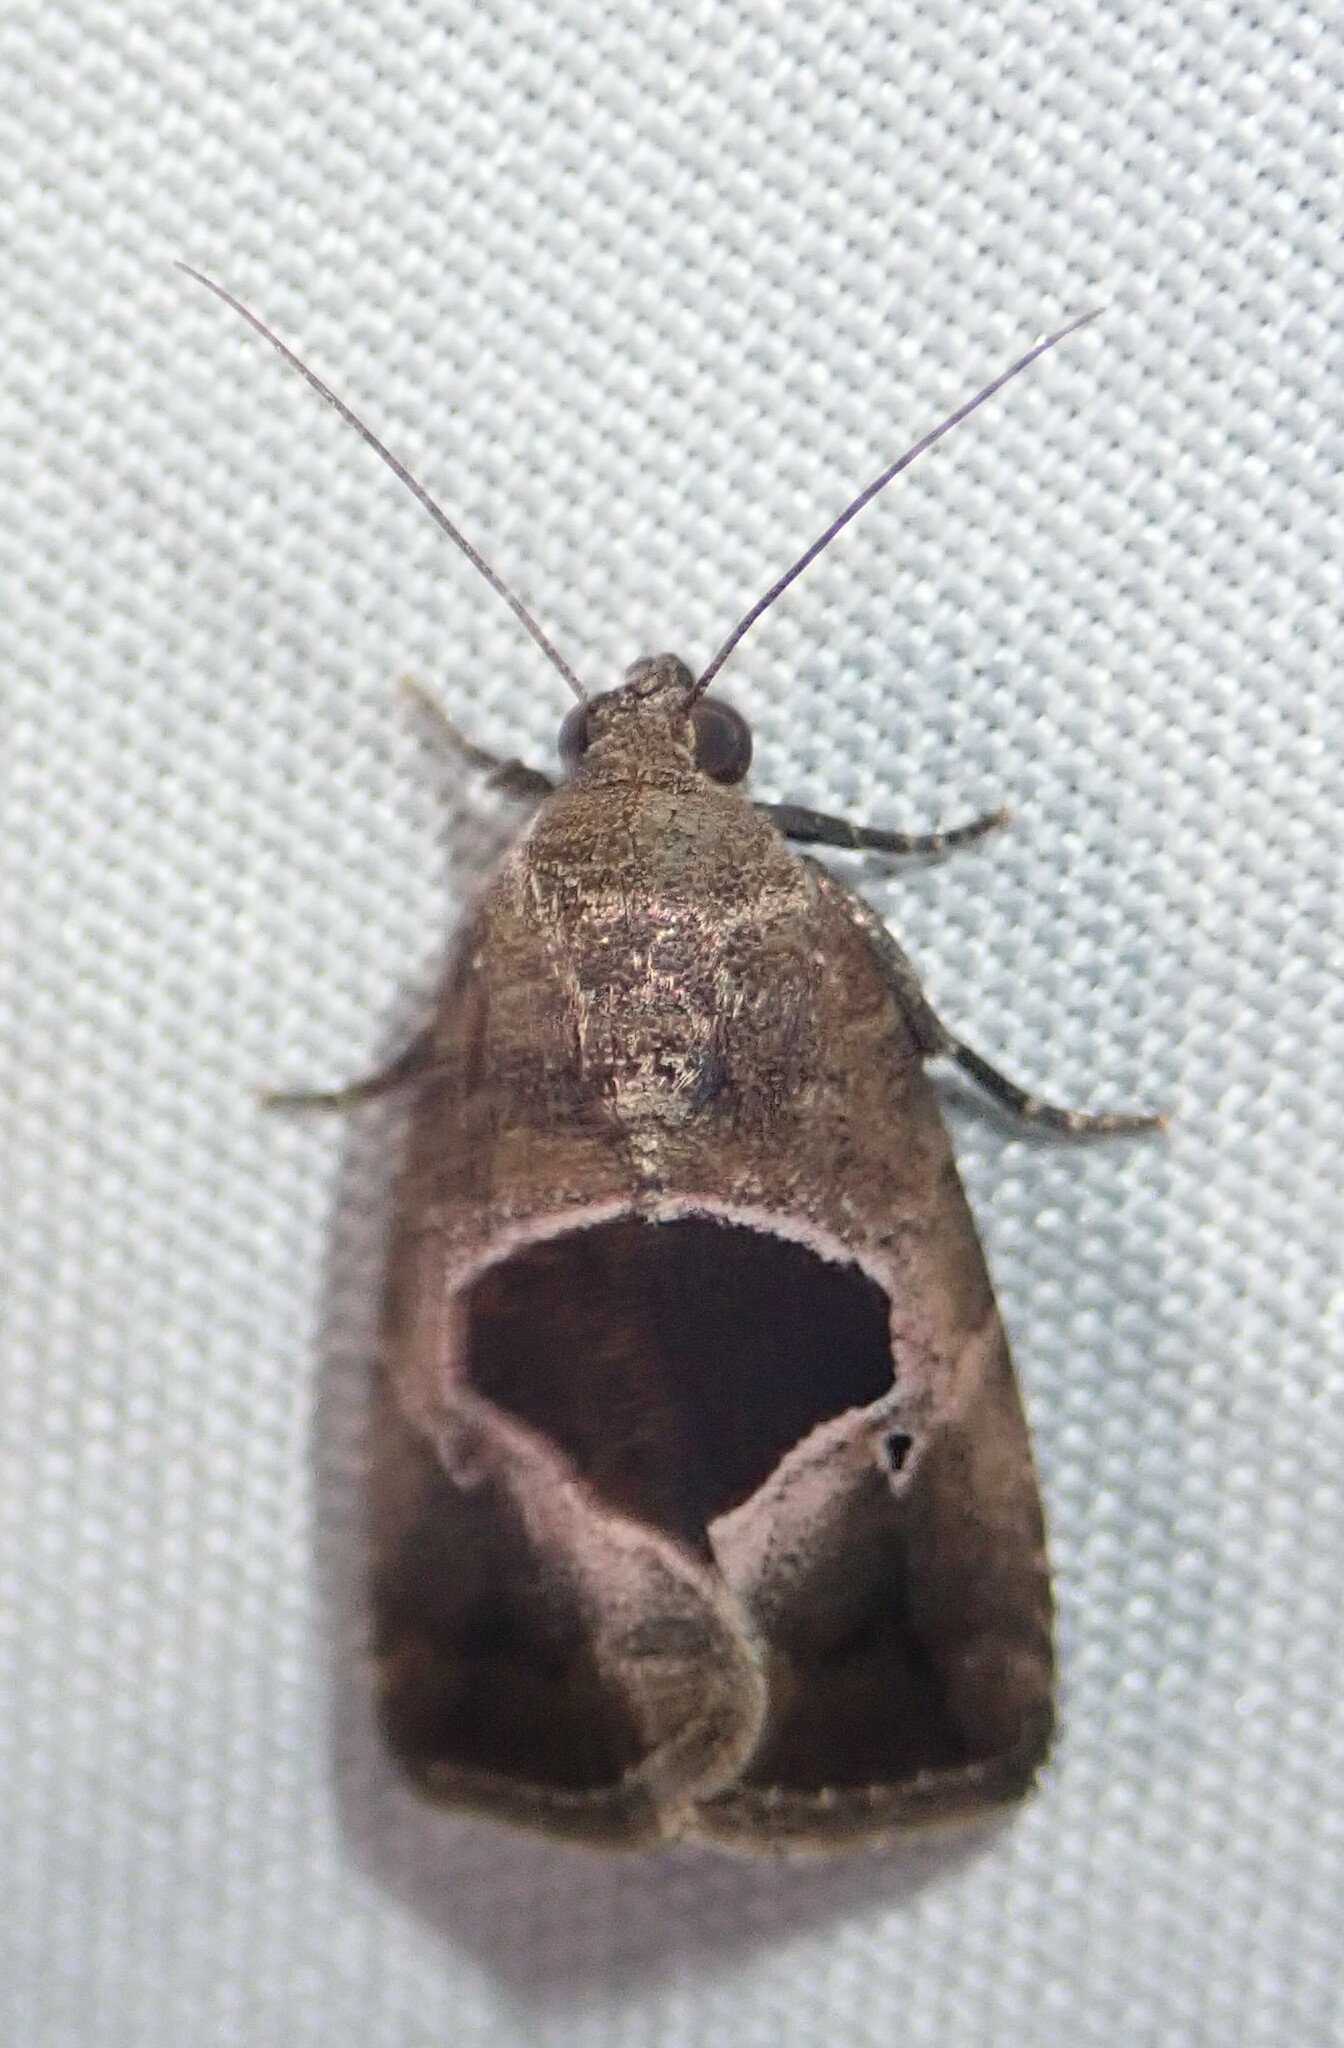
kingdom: Animalia
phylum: Arthropoda
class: Insecta
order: Lepidoptera
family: Noctuidae
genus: Elaphria
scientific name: Elaphria deltoides
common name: Cutworm moth
